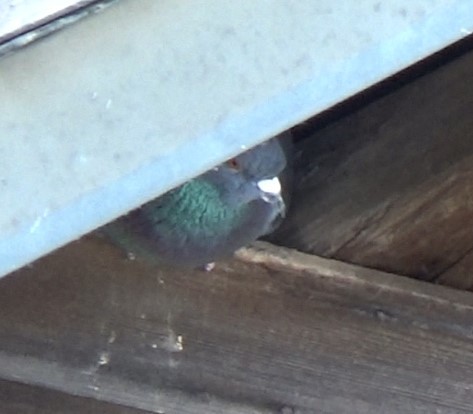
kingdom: Animalia
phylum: Chordata
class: Aves
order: Columbiformes
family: Columbidae
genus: Columba
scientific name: Columba livia
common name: Rock pigeon
